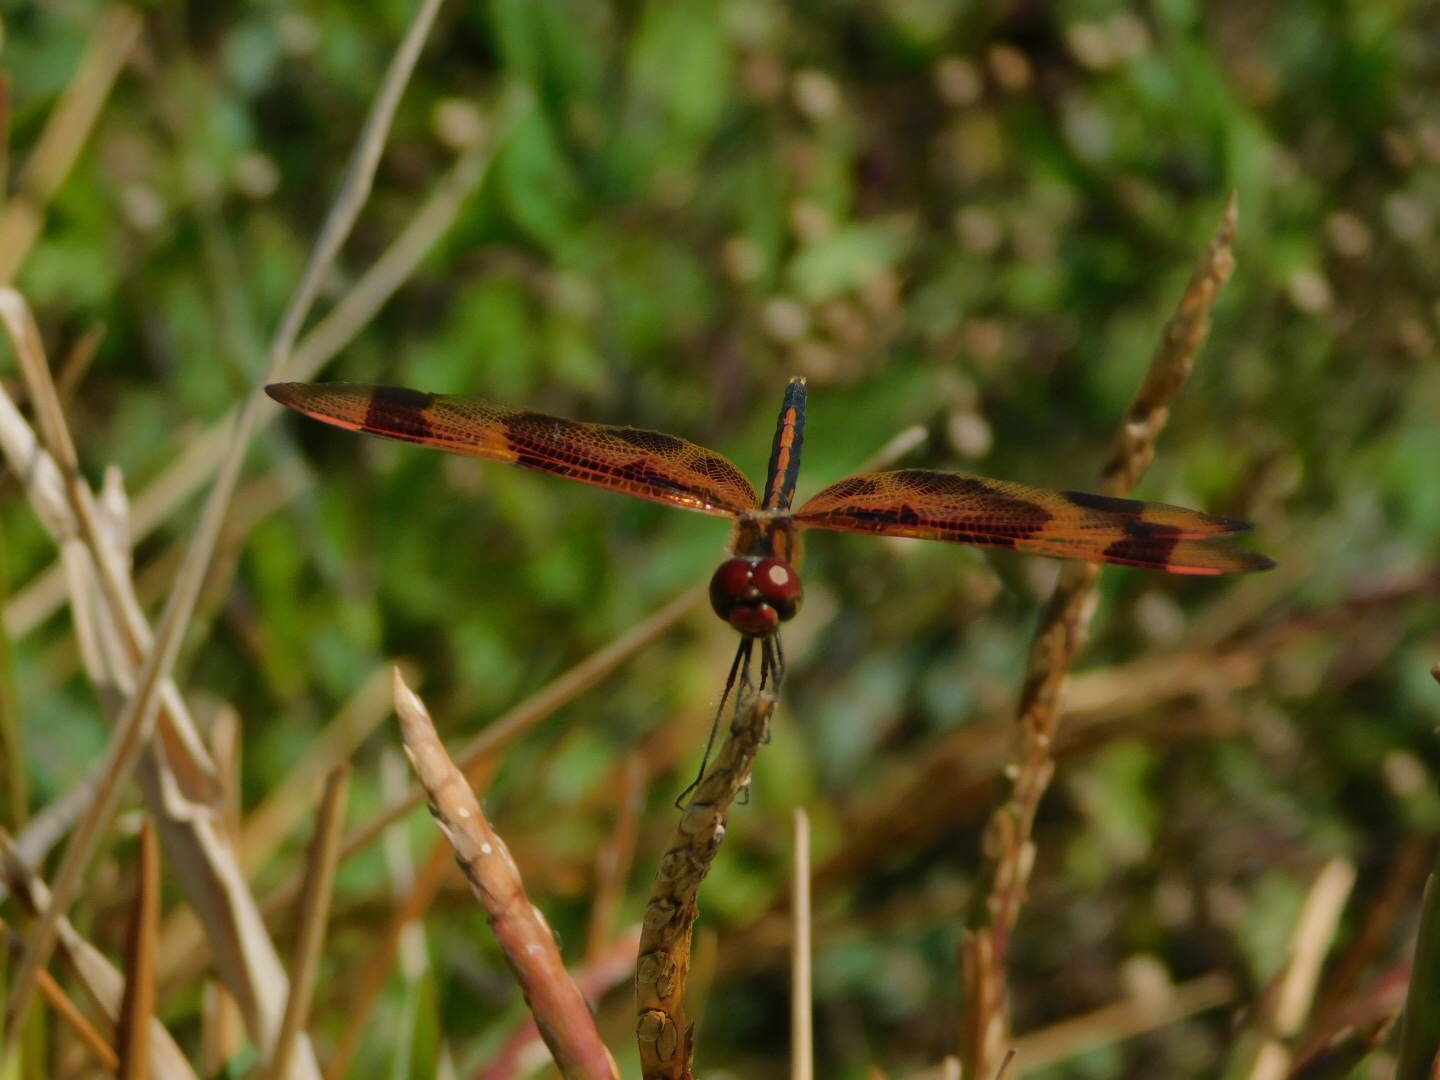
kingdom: Animalia
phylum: Arthropoda
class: Insecta
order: Odonata
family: Libellulidae
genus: Celithemis
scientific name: Celithemis eponina
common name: Halloween pennant
